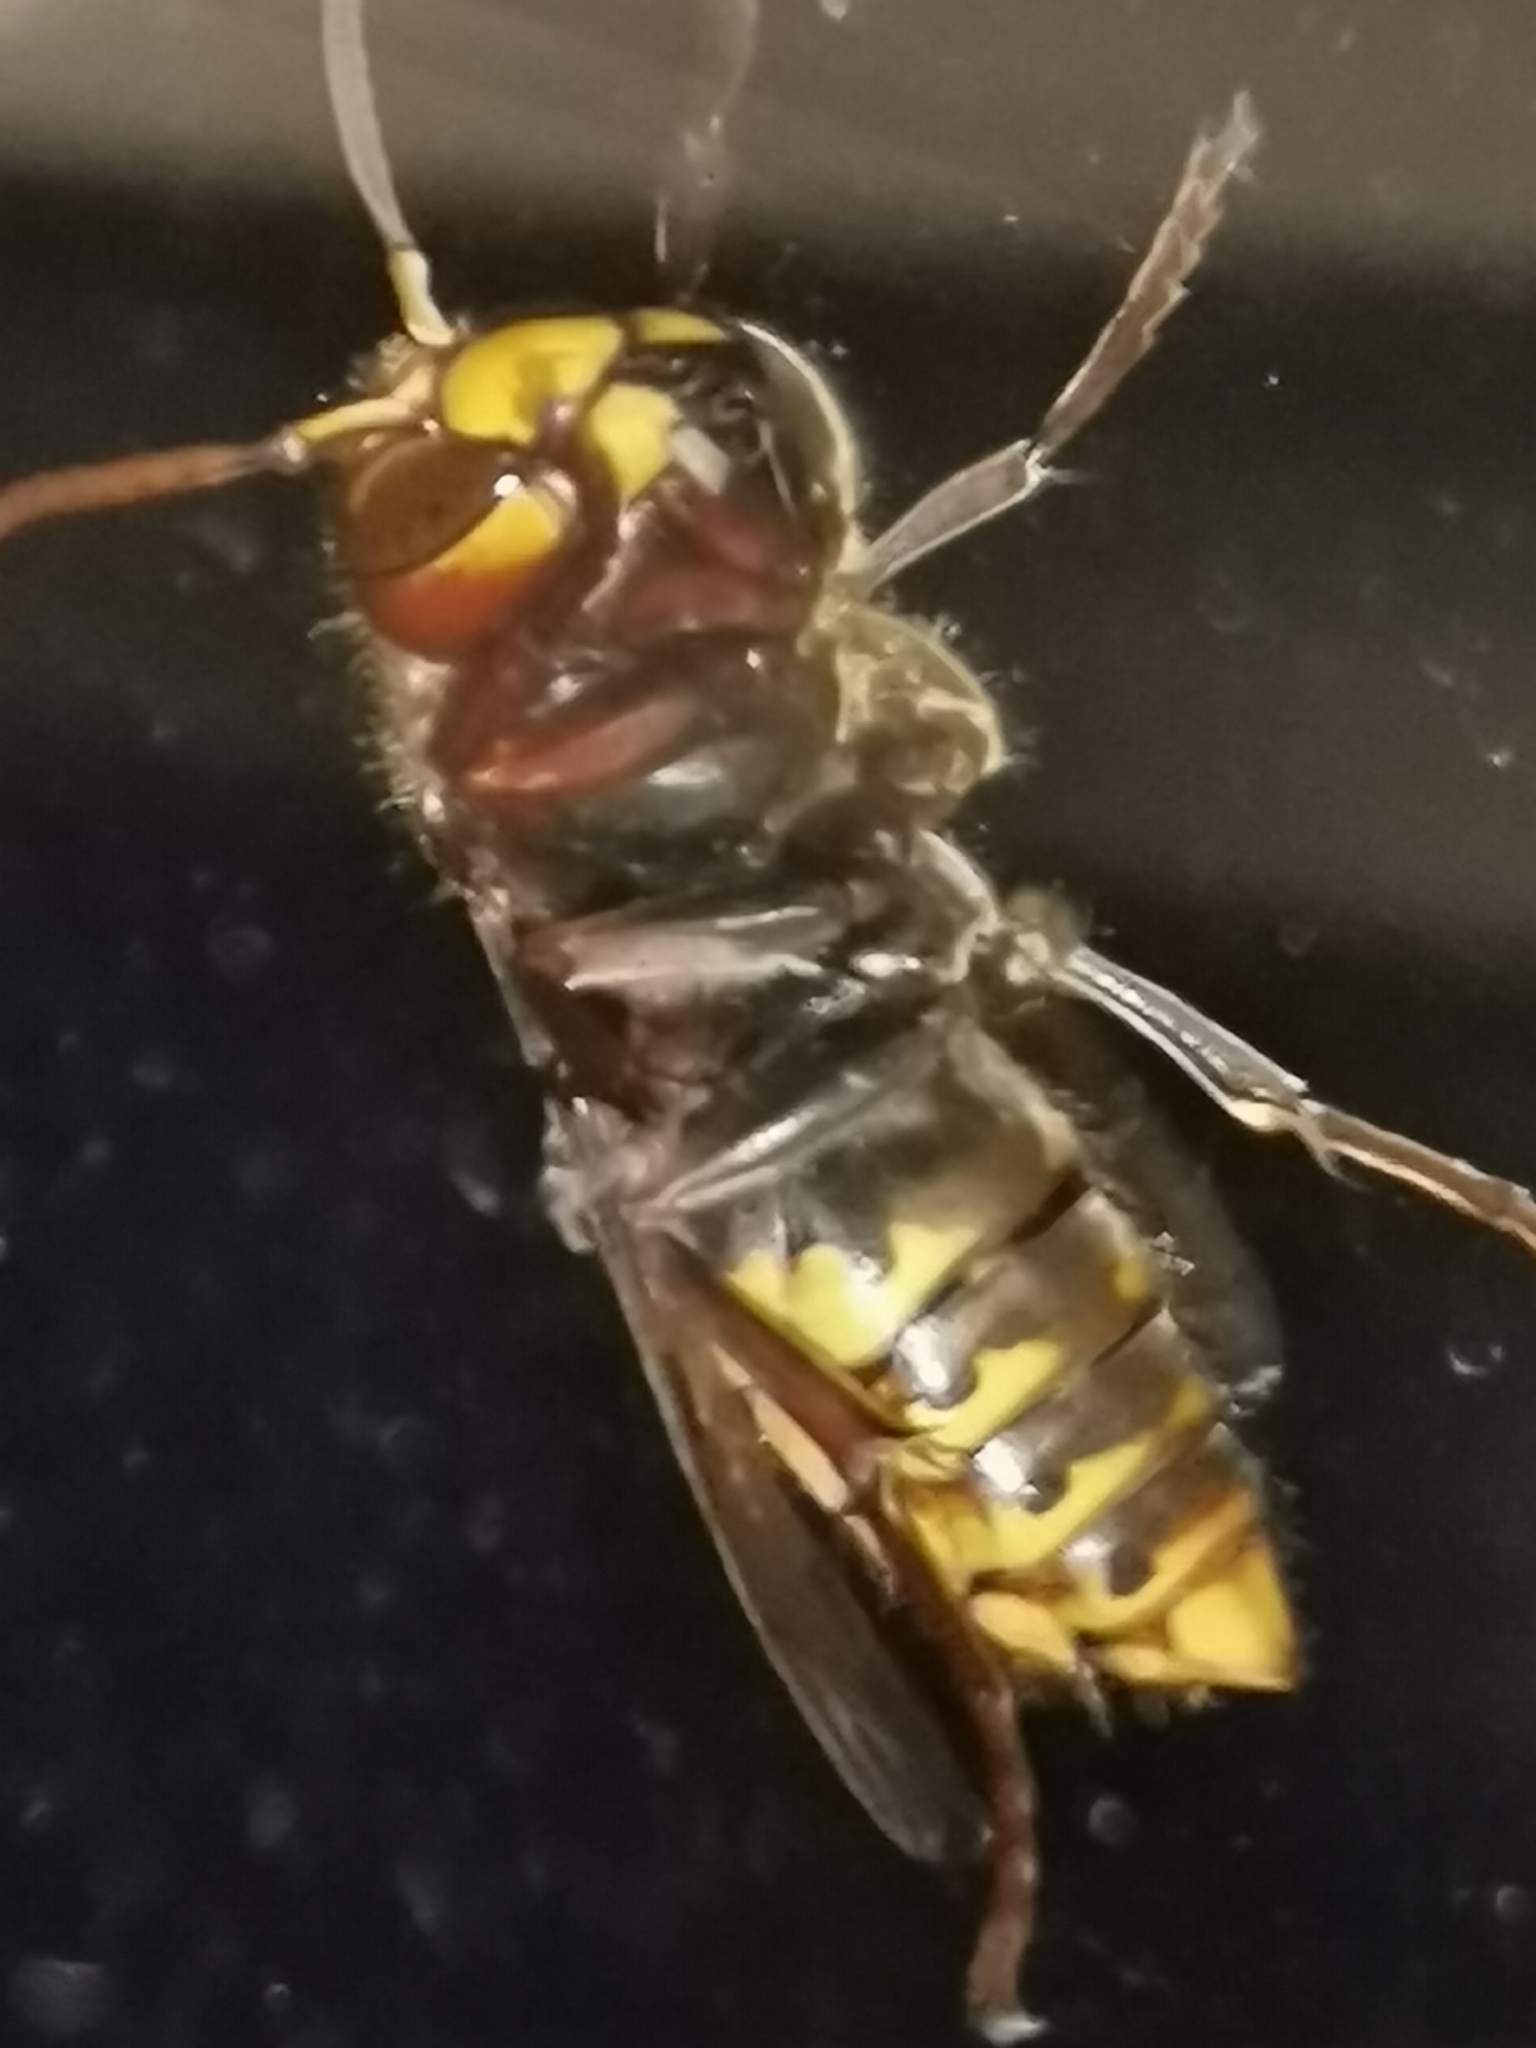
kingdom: Animalia
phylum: Arthropoda
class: Insecta
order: Hymenoptera
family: Vespidae
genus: Vespa
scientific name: Vespa crabro
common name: Hornet
